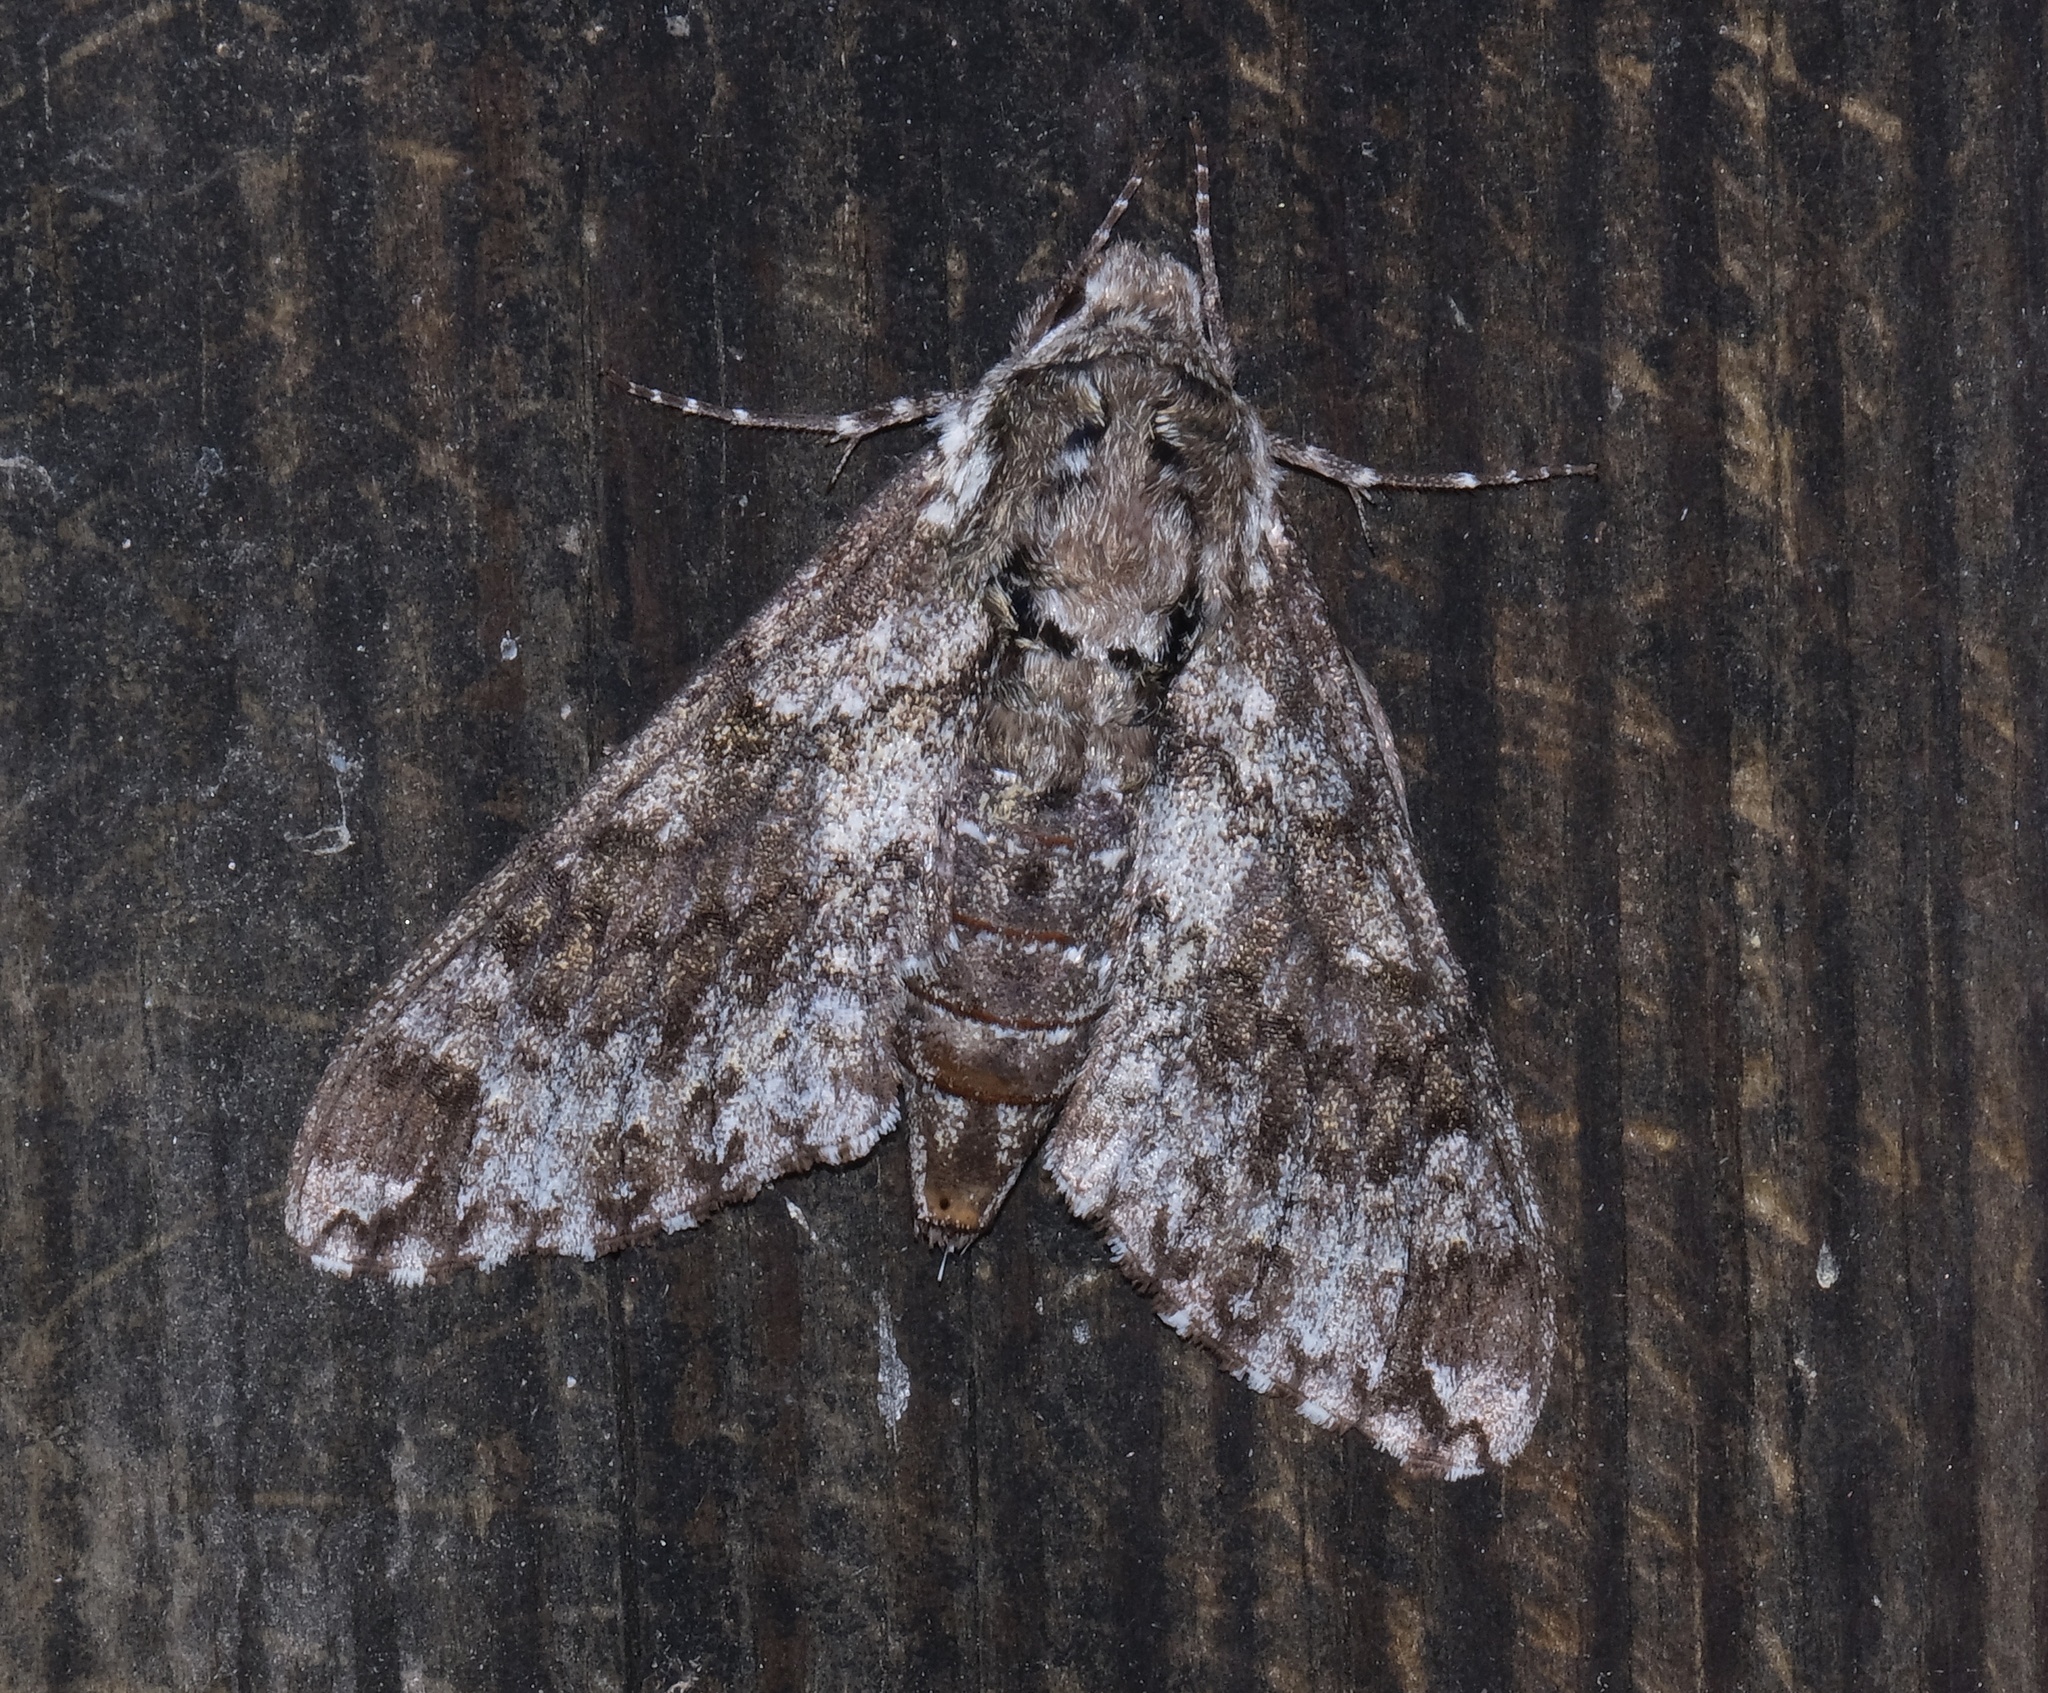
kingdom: Animalia
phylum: Arthropoda
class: Insecta
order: Lepidoptera
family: Sphingidae
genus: Dolba
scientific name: Dolba hyloeus
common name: Pawpaw sphinx
